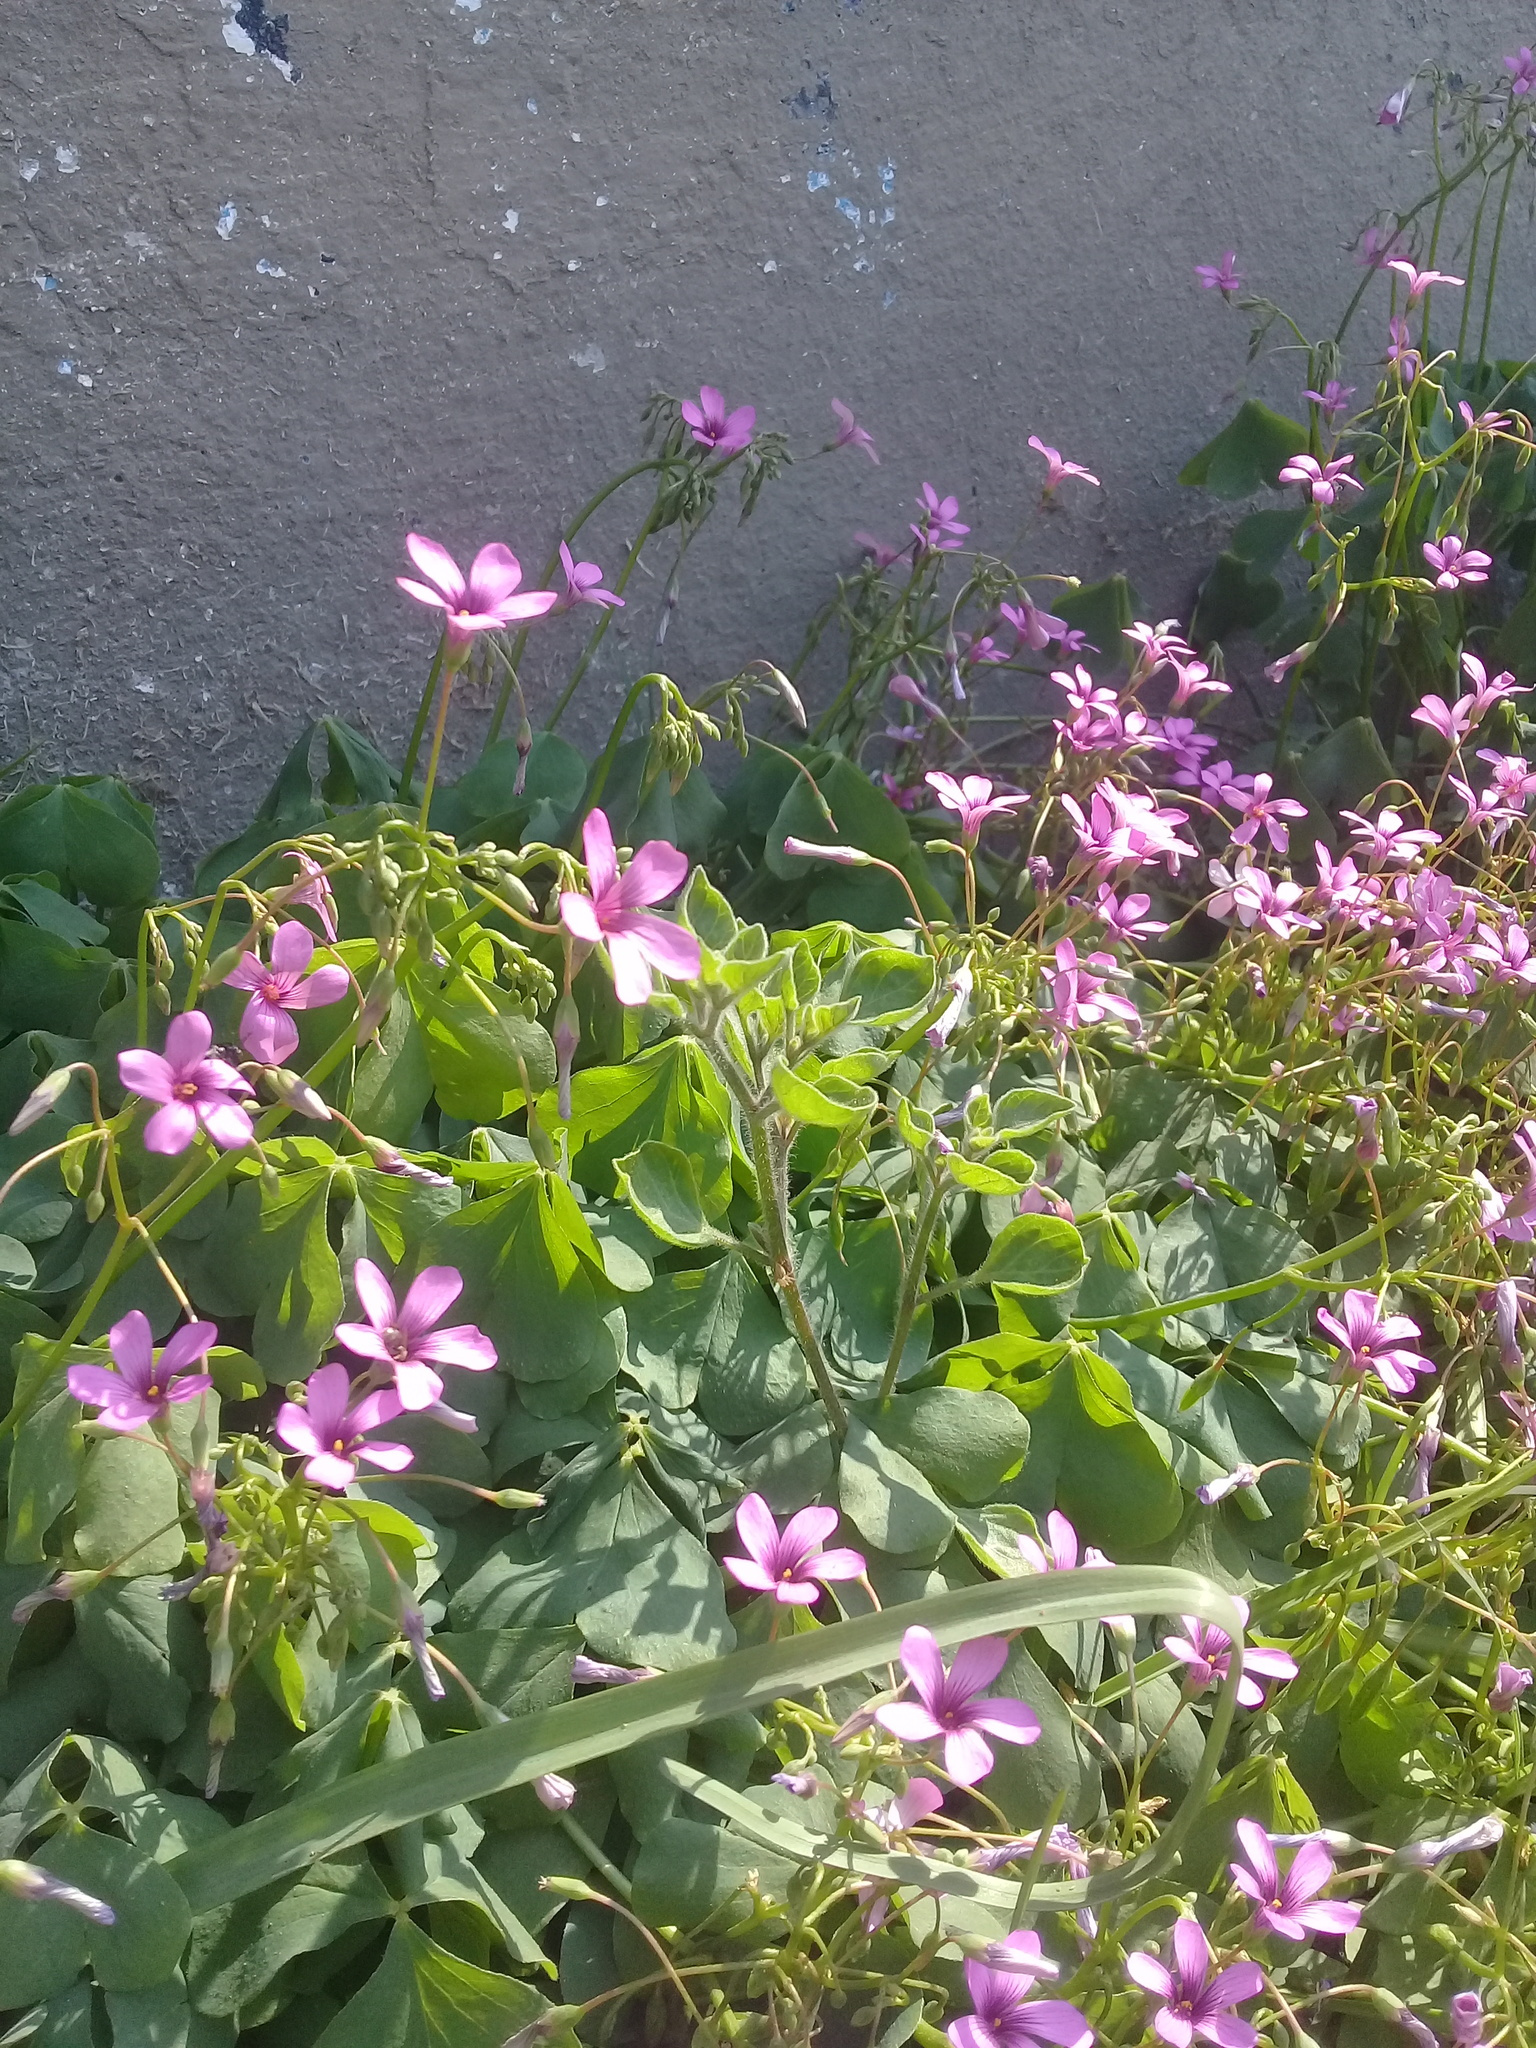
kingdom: Plantae
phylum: Tracheophyta
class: Magnoliopsida
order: Oxalidales
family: Oxalidaceae
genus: Oxalis
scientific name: Oxalis articulata
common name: Pink-sorrel
